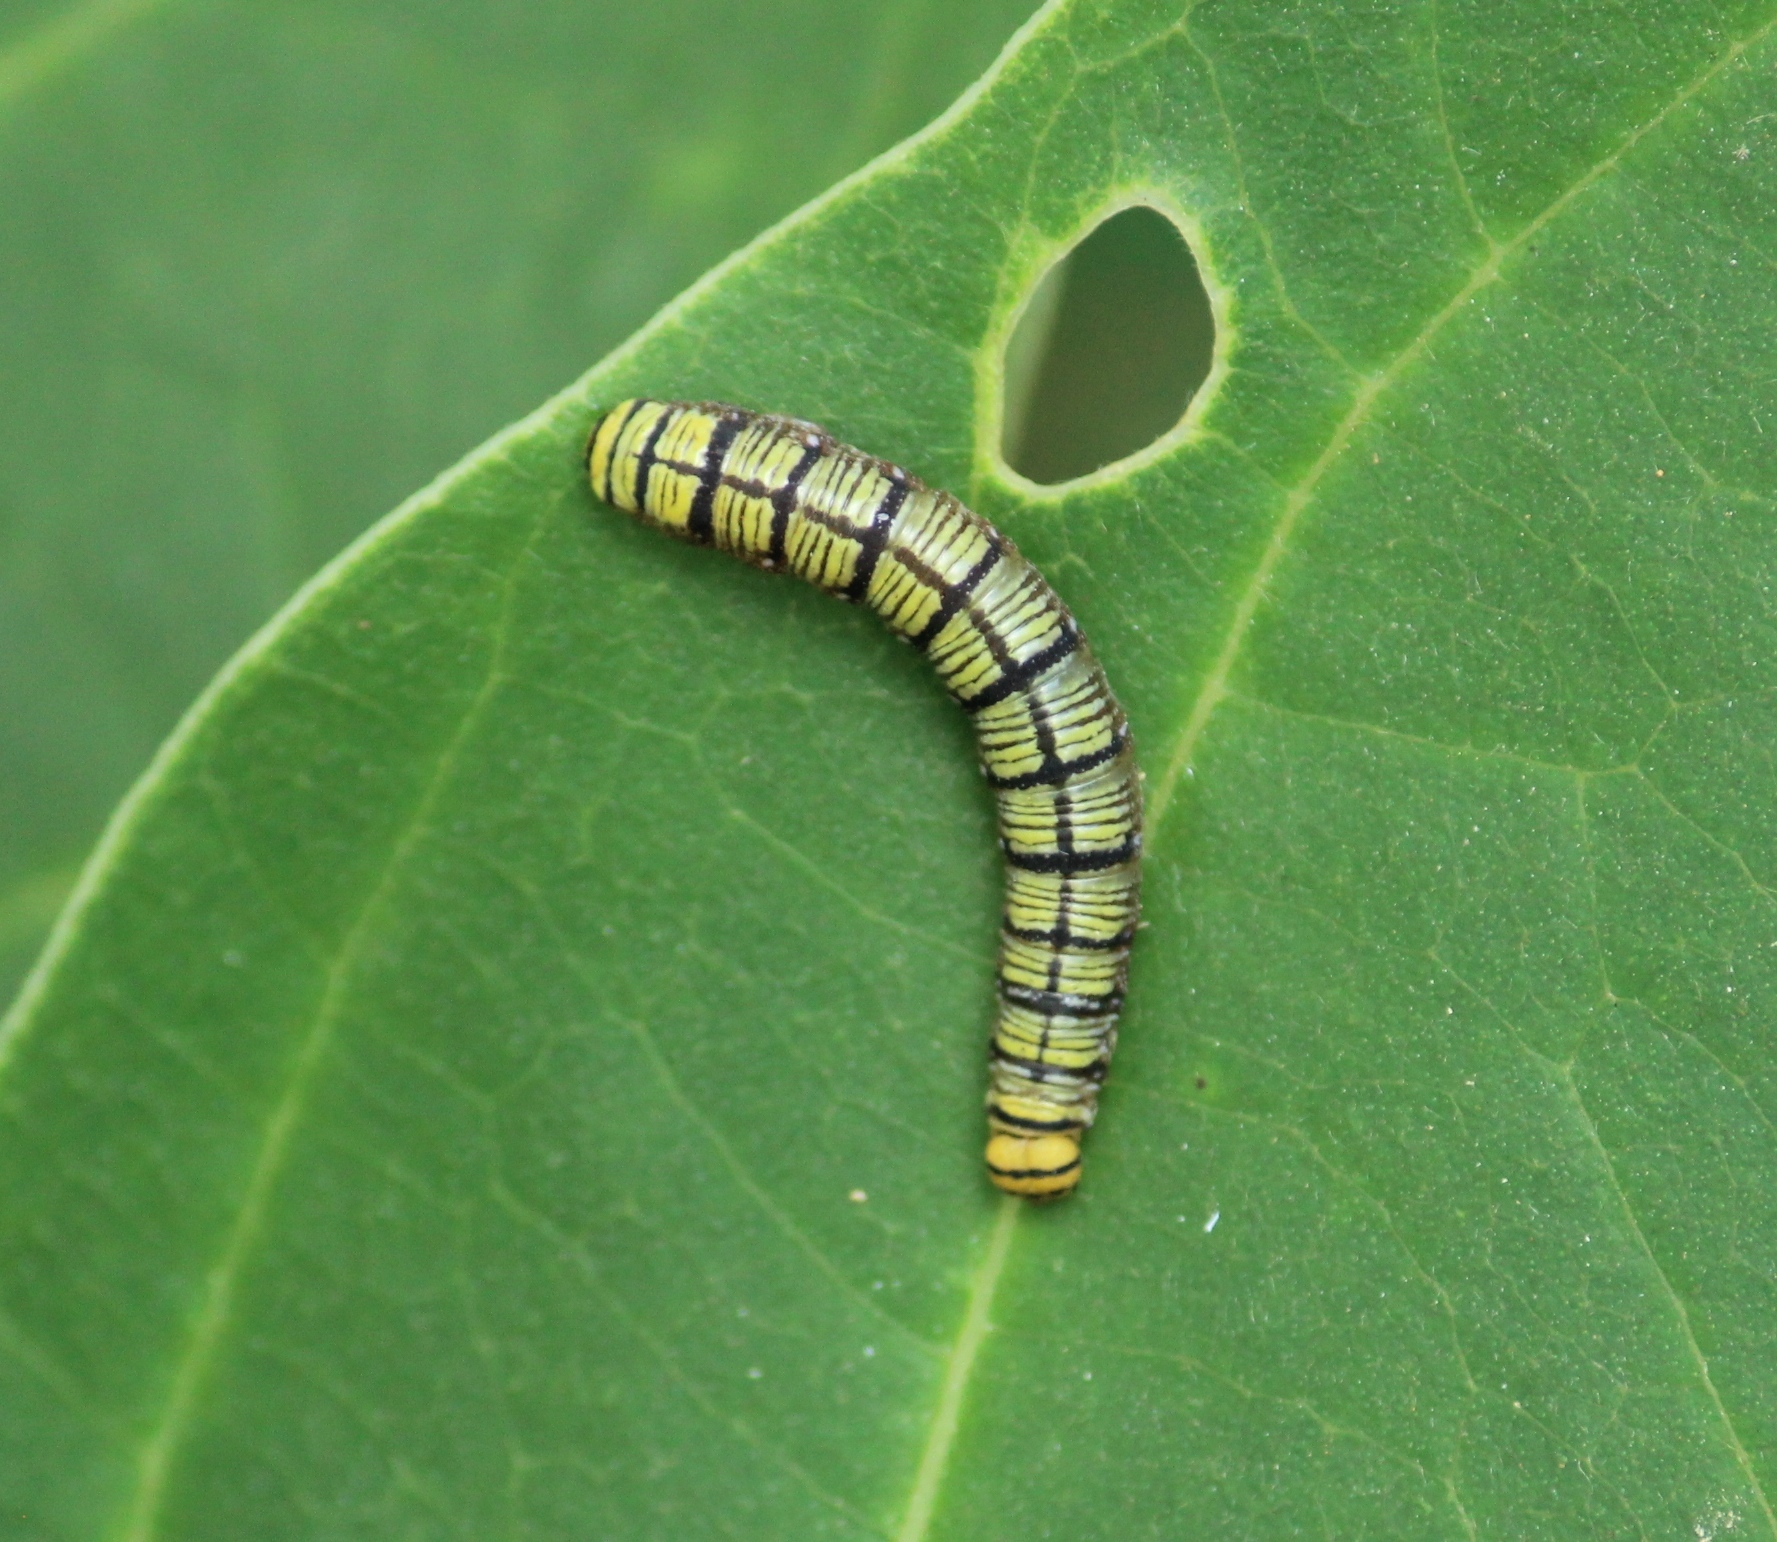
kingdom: Animalia
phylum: Arthropoda
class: Insecta
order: Lepidoptera
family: Hesperiidae
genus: Badamia
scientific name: Badamia exclamationis
